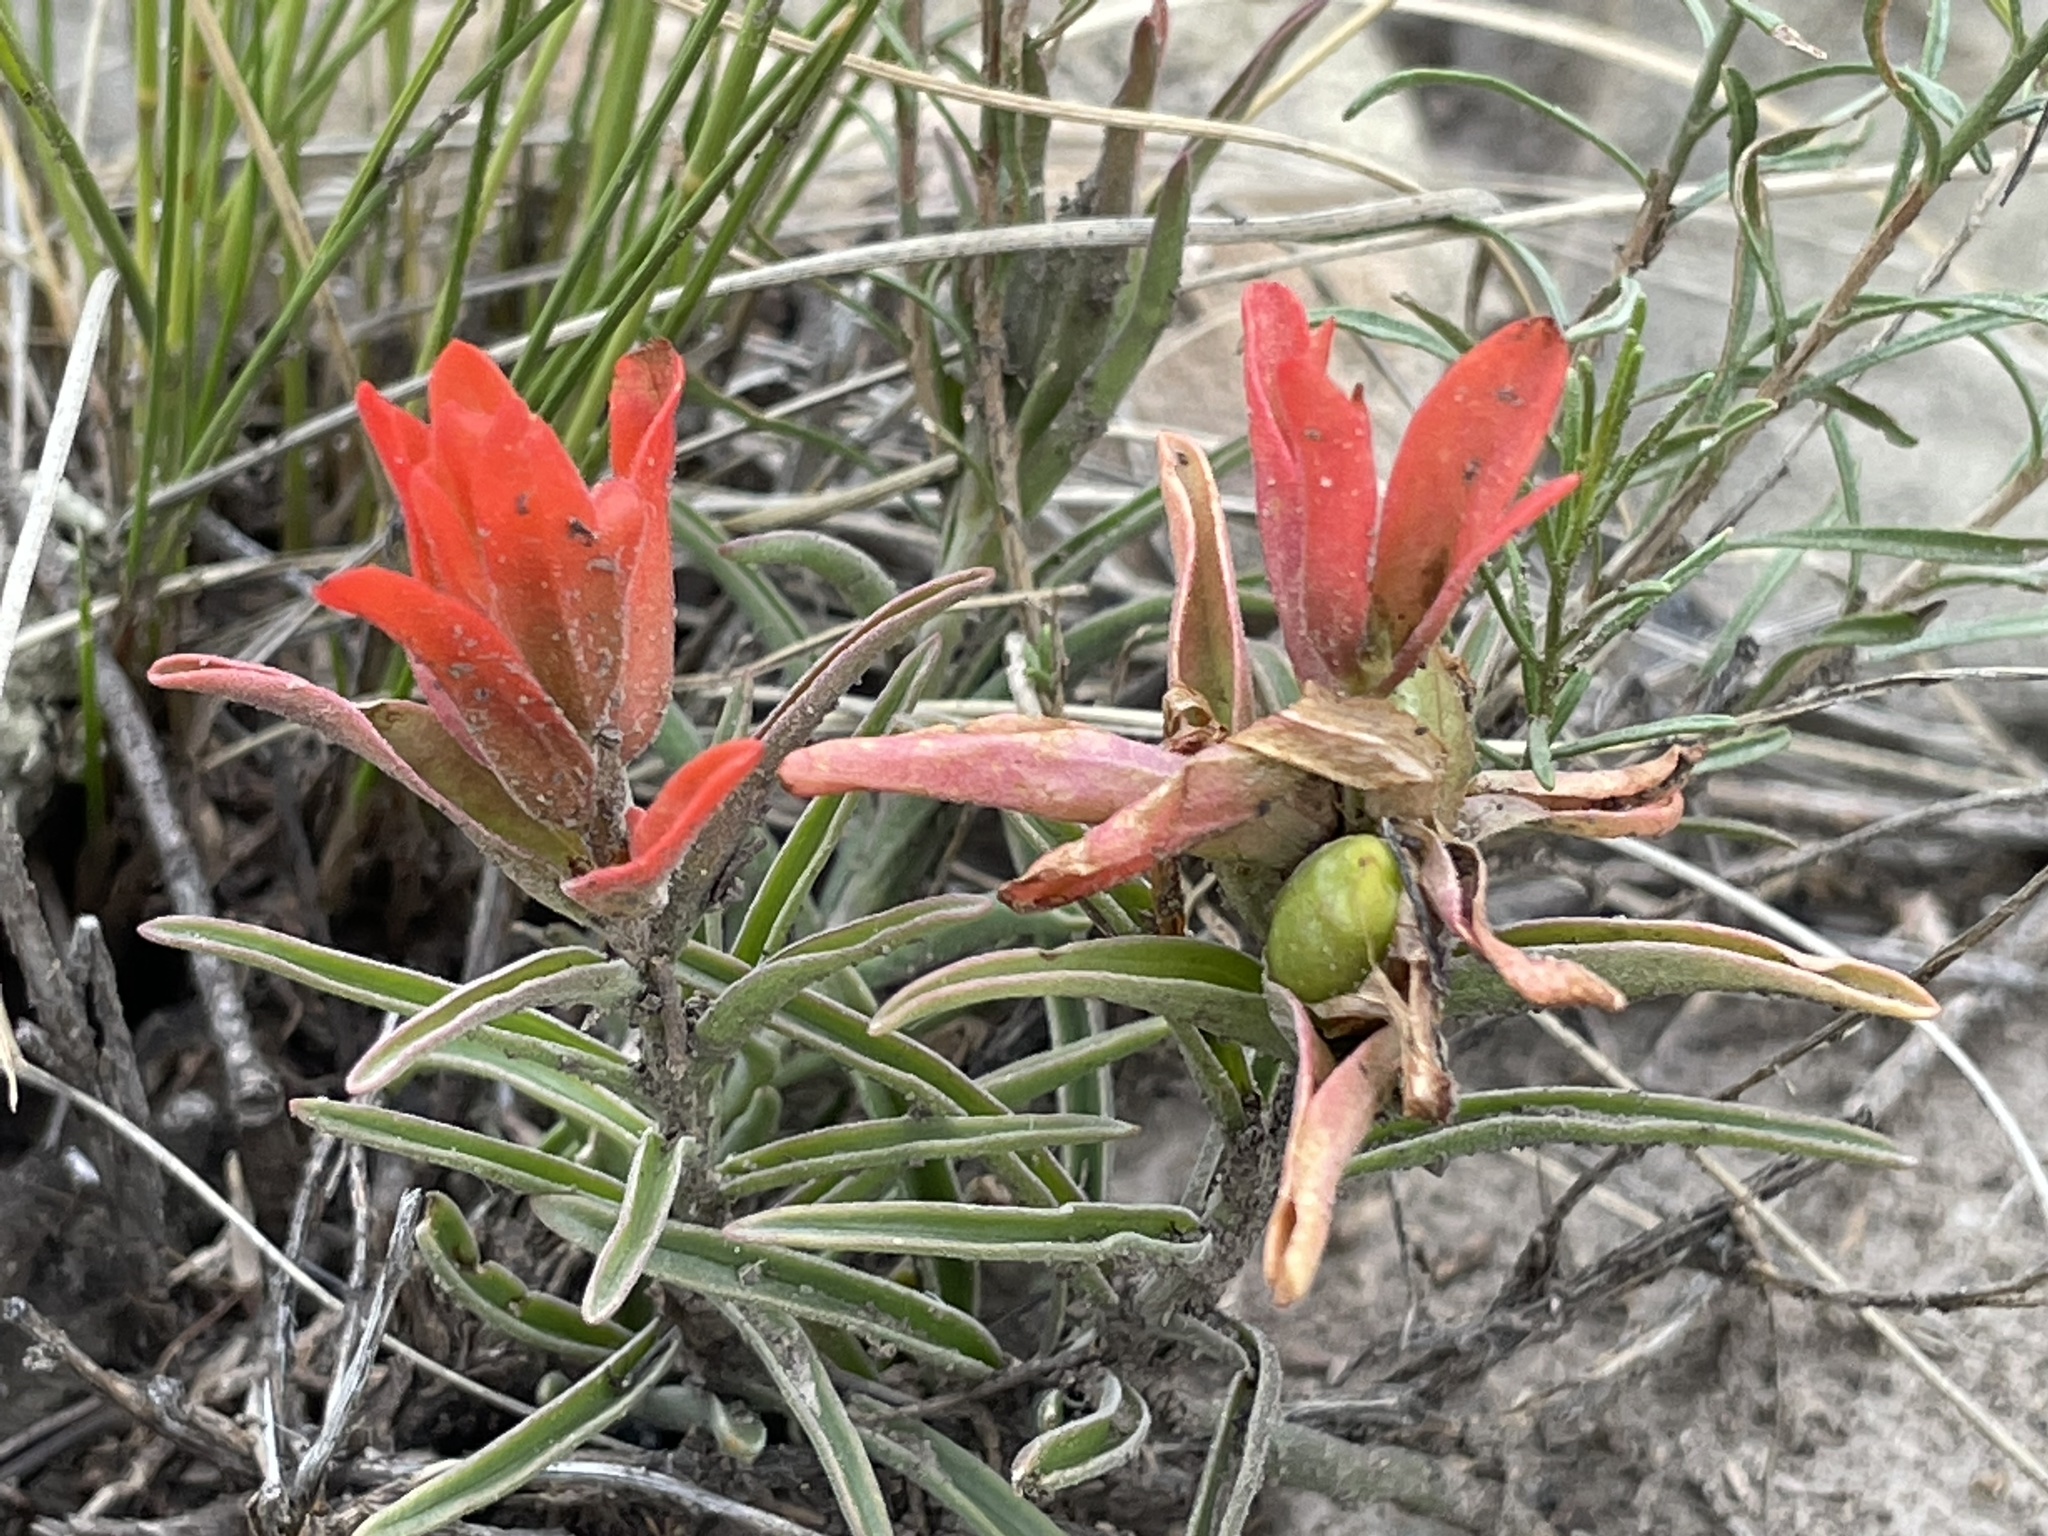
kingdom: Plantae
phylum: Tracheophyta
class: Magnoliopsida
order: Lamiales
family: Orobanchaceae
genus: Castilleja
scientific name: Castilleja integra
